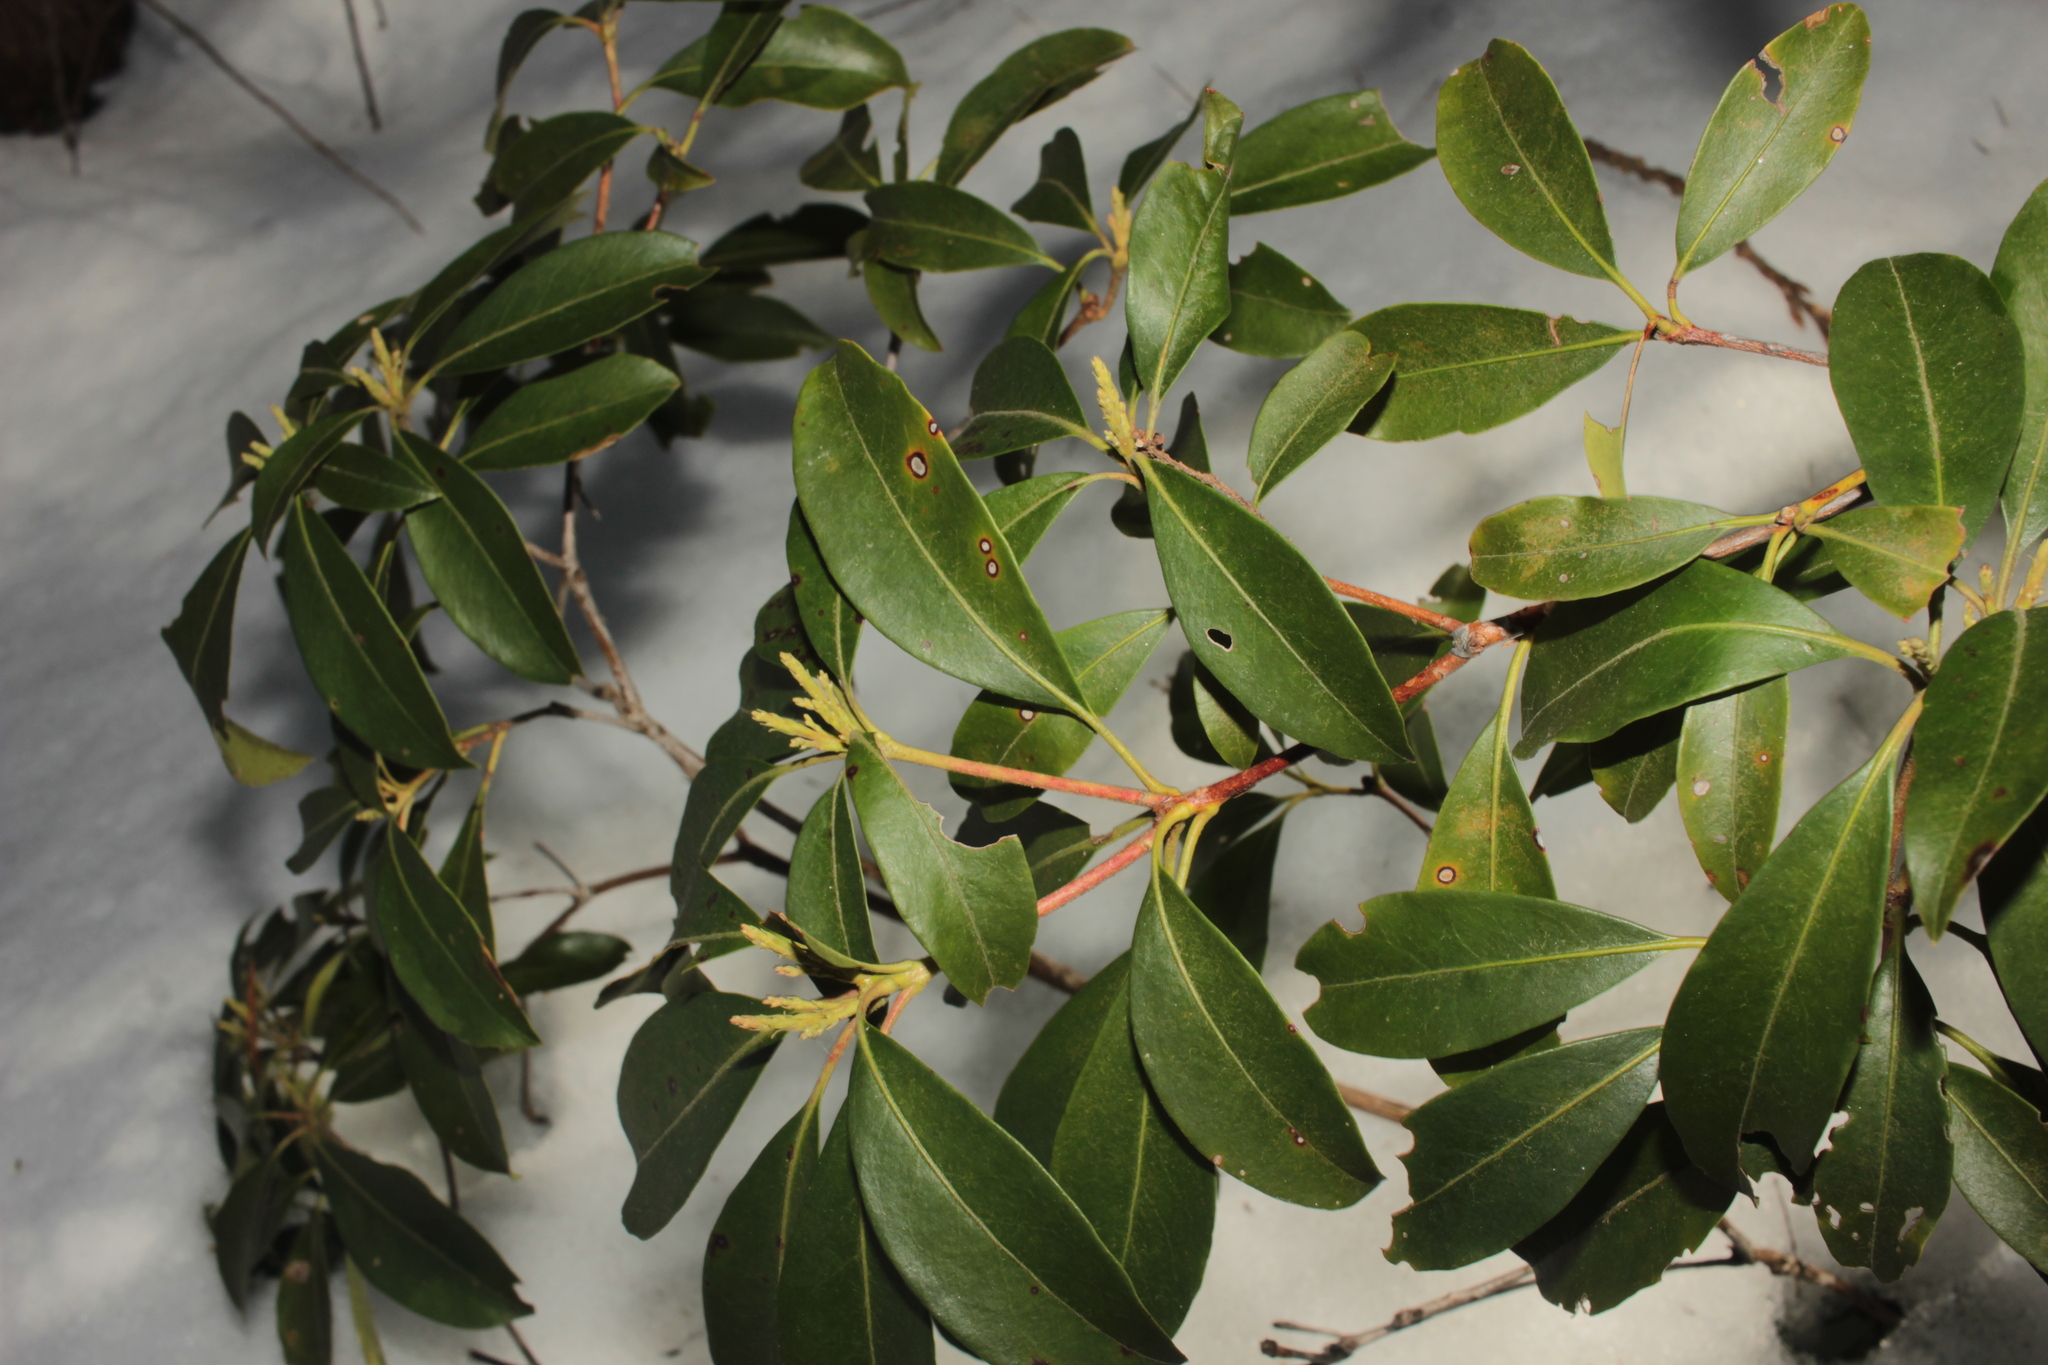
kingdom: Plantae
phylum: Tracheophyta
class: Magnoliopsida
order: Ericales
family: Ericaceae
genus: Kalmia
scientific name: Kalmia latifolia
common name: Mountain-laurel
